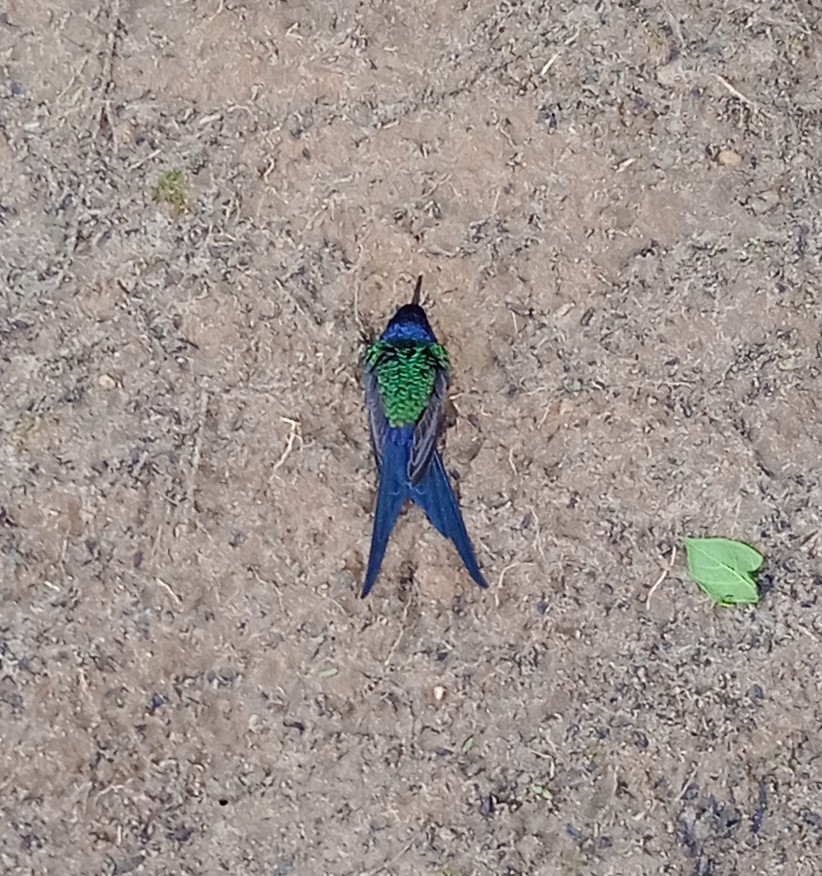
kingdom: Animalia
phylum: Chordata
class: Aves
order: Apodiformes
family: Trochilidae
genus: Eupetomena
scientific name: Eupetomena macroura
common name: Swallow-tailed hummingbird
